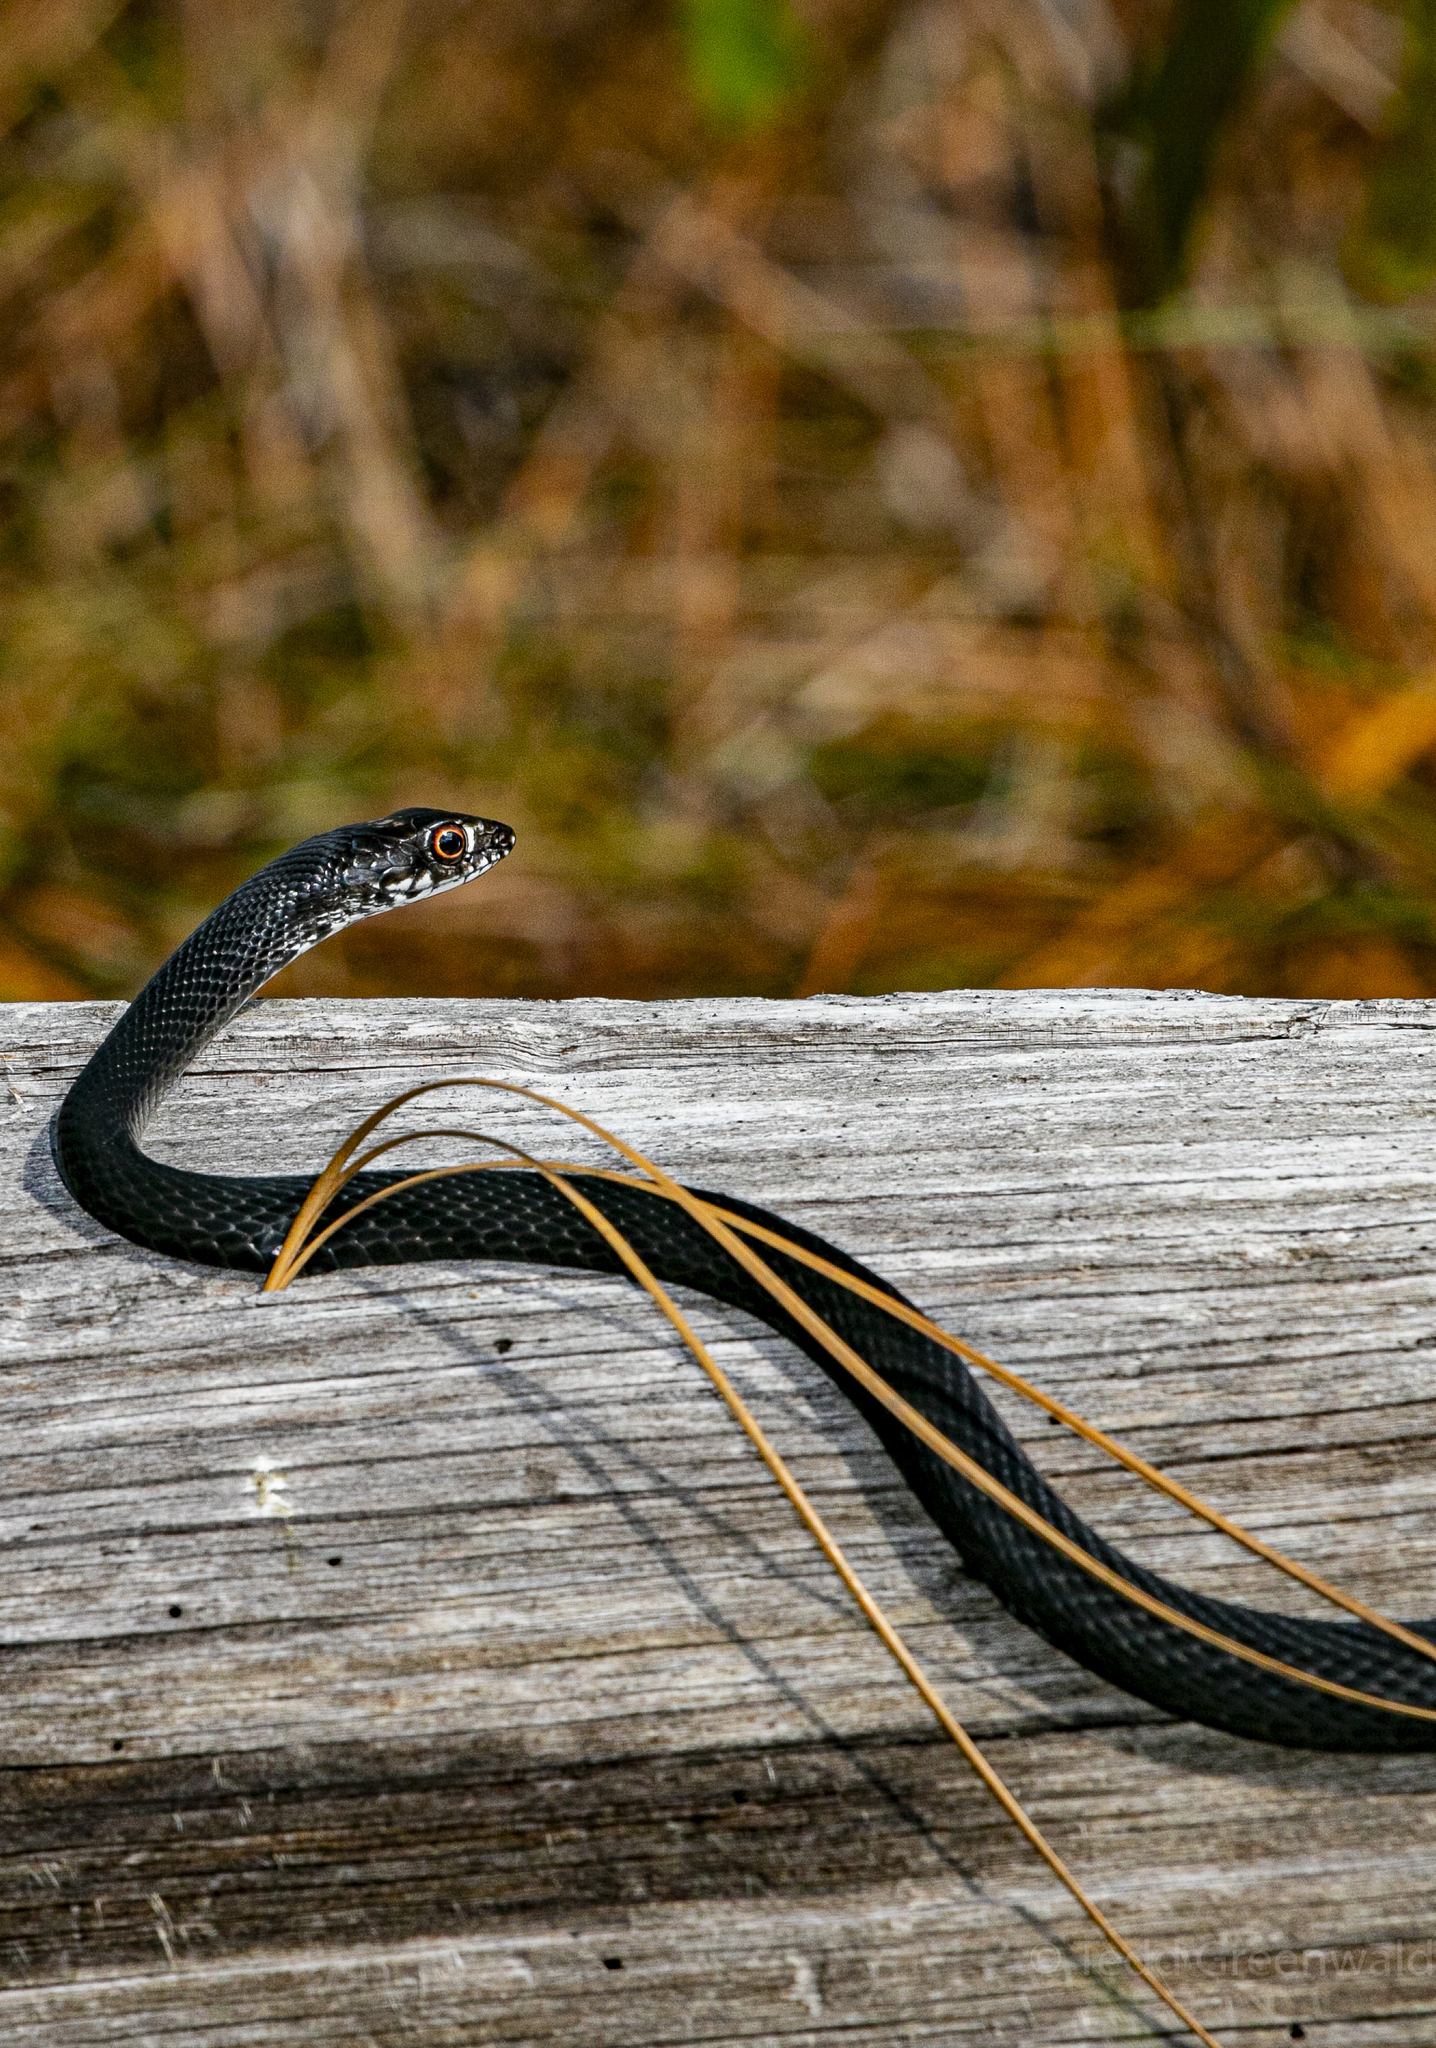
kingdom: Animalia
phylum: Chordata
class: Squamata
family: Colubridae
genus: Masticophis
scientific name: Masticophis flagellum
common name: Coachwhip
